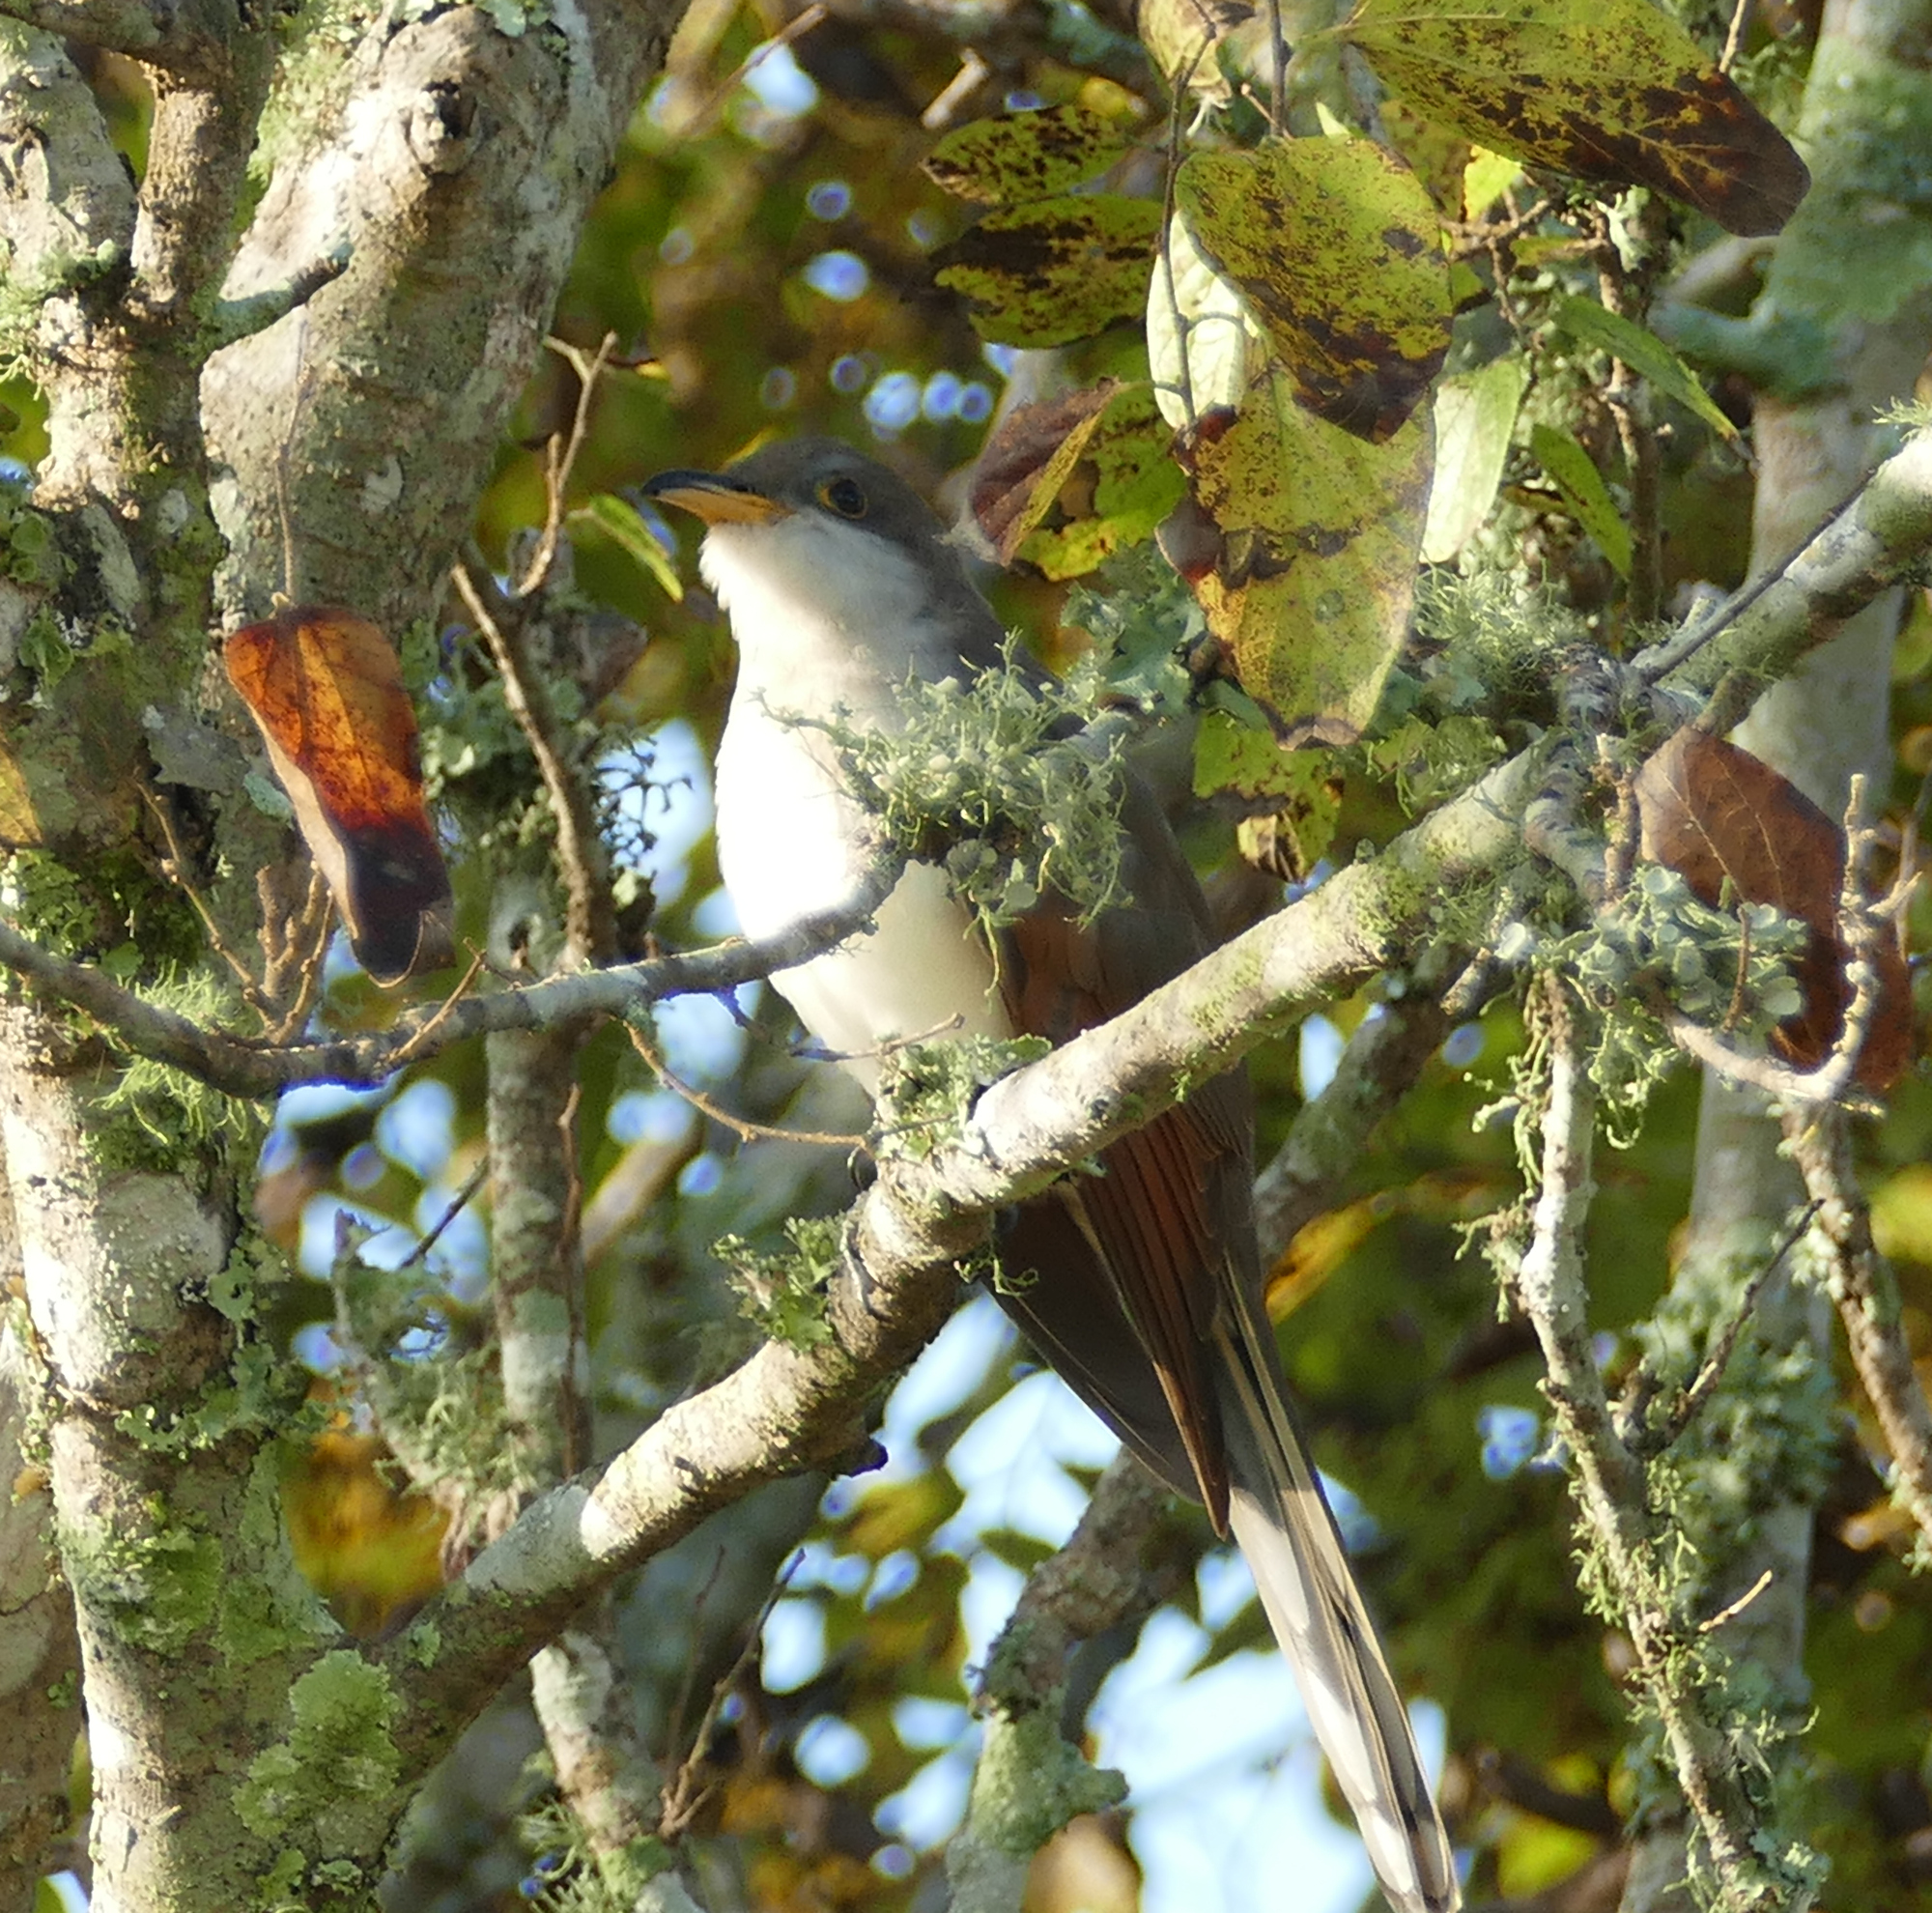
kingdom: Animalia
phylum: Chordata
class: Aves
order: Cuculiformes
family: Cuculidae
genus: Coccyzus
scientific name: Coccyzus americanus
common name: Yellow-billed cuckoo
